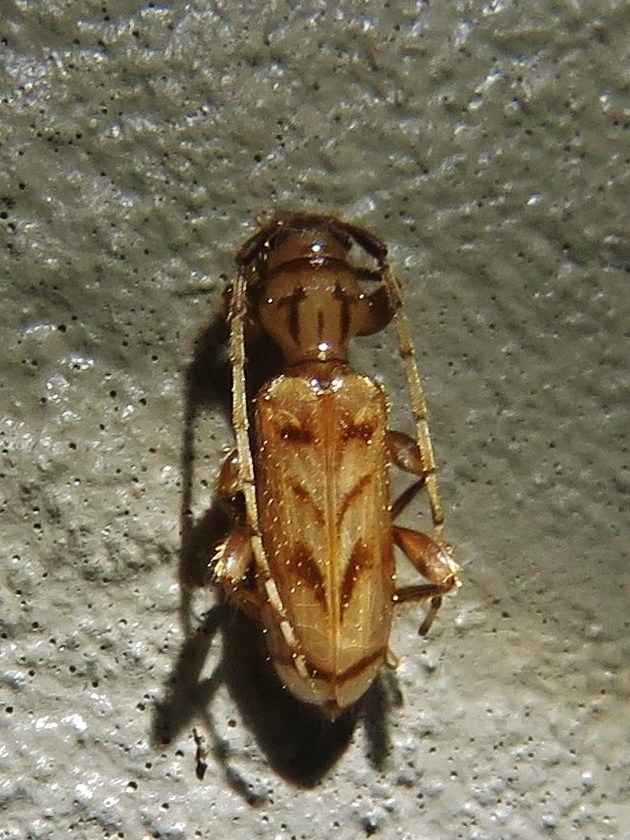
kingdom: Animalia
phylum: Arthropoda
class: Insecta
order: Coleoptera
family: Cerambycidae
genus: Obrium
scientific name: Obrium maculatum
